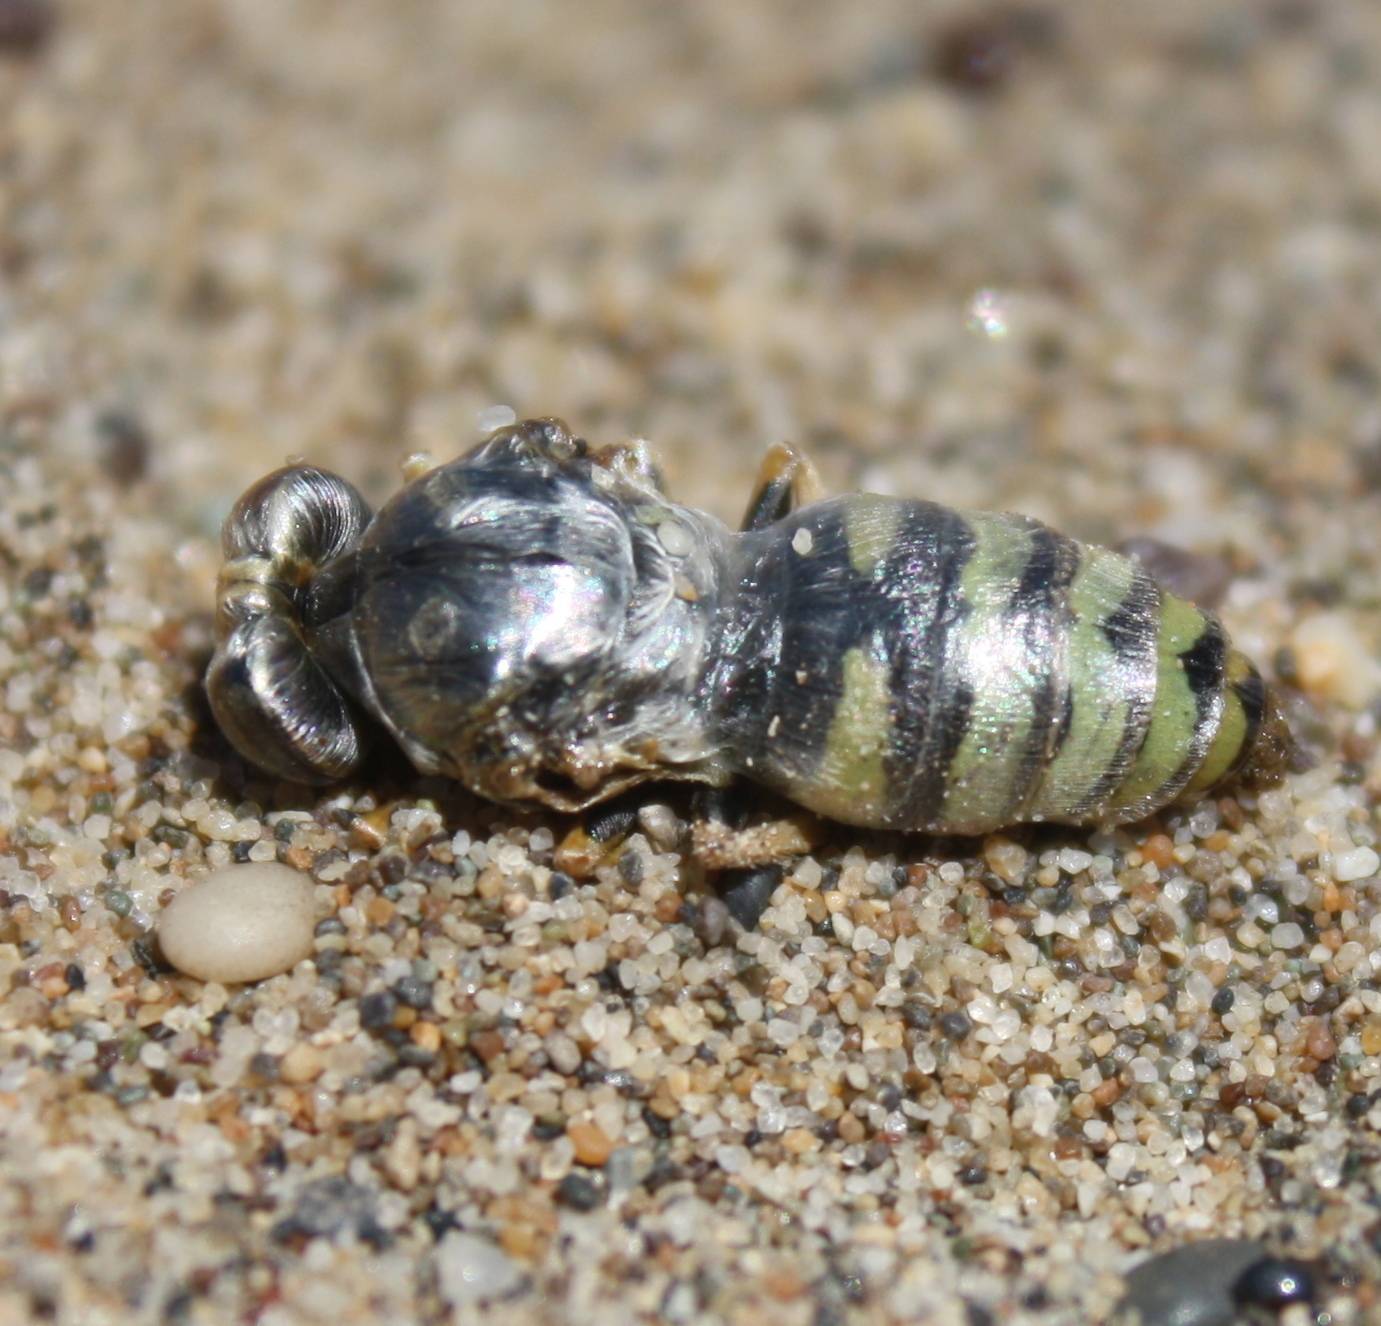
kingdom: Animalia
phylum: Arthropoda
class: Insecta
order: Hymenoptera
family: Crabronidae
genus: Bembix
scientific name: Bembix americana
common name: American sand wasp
